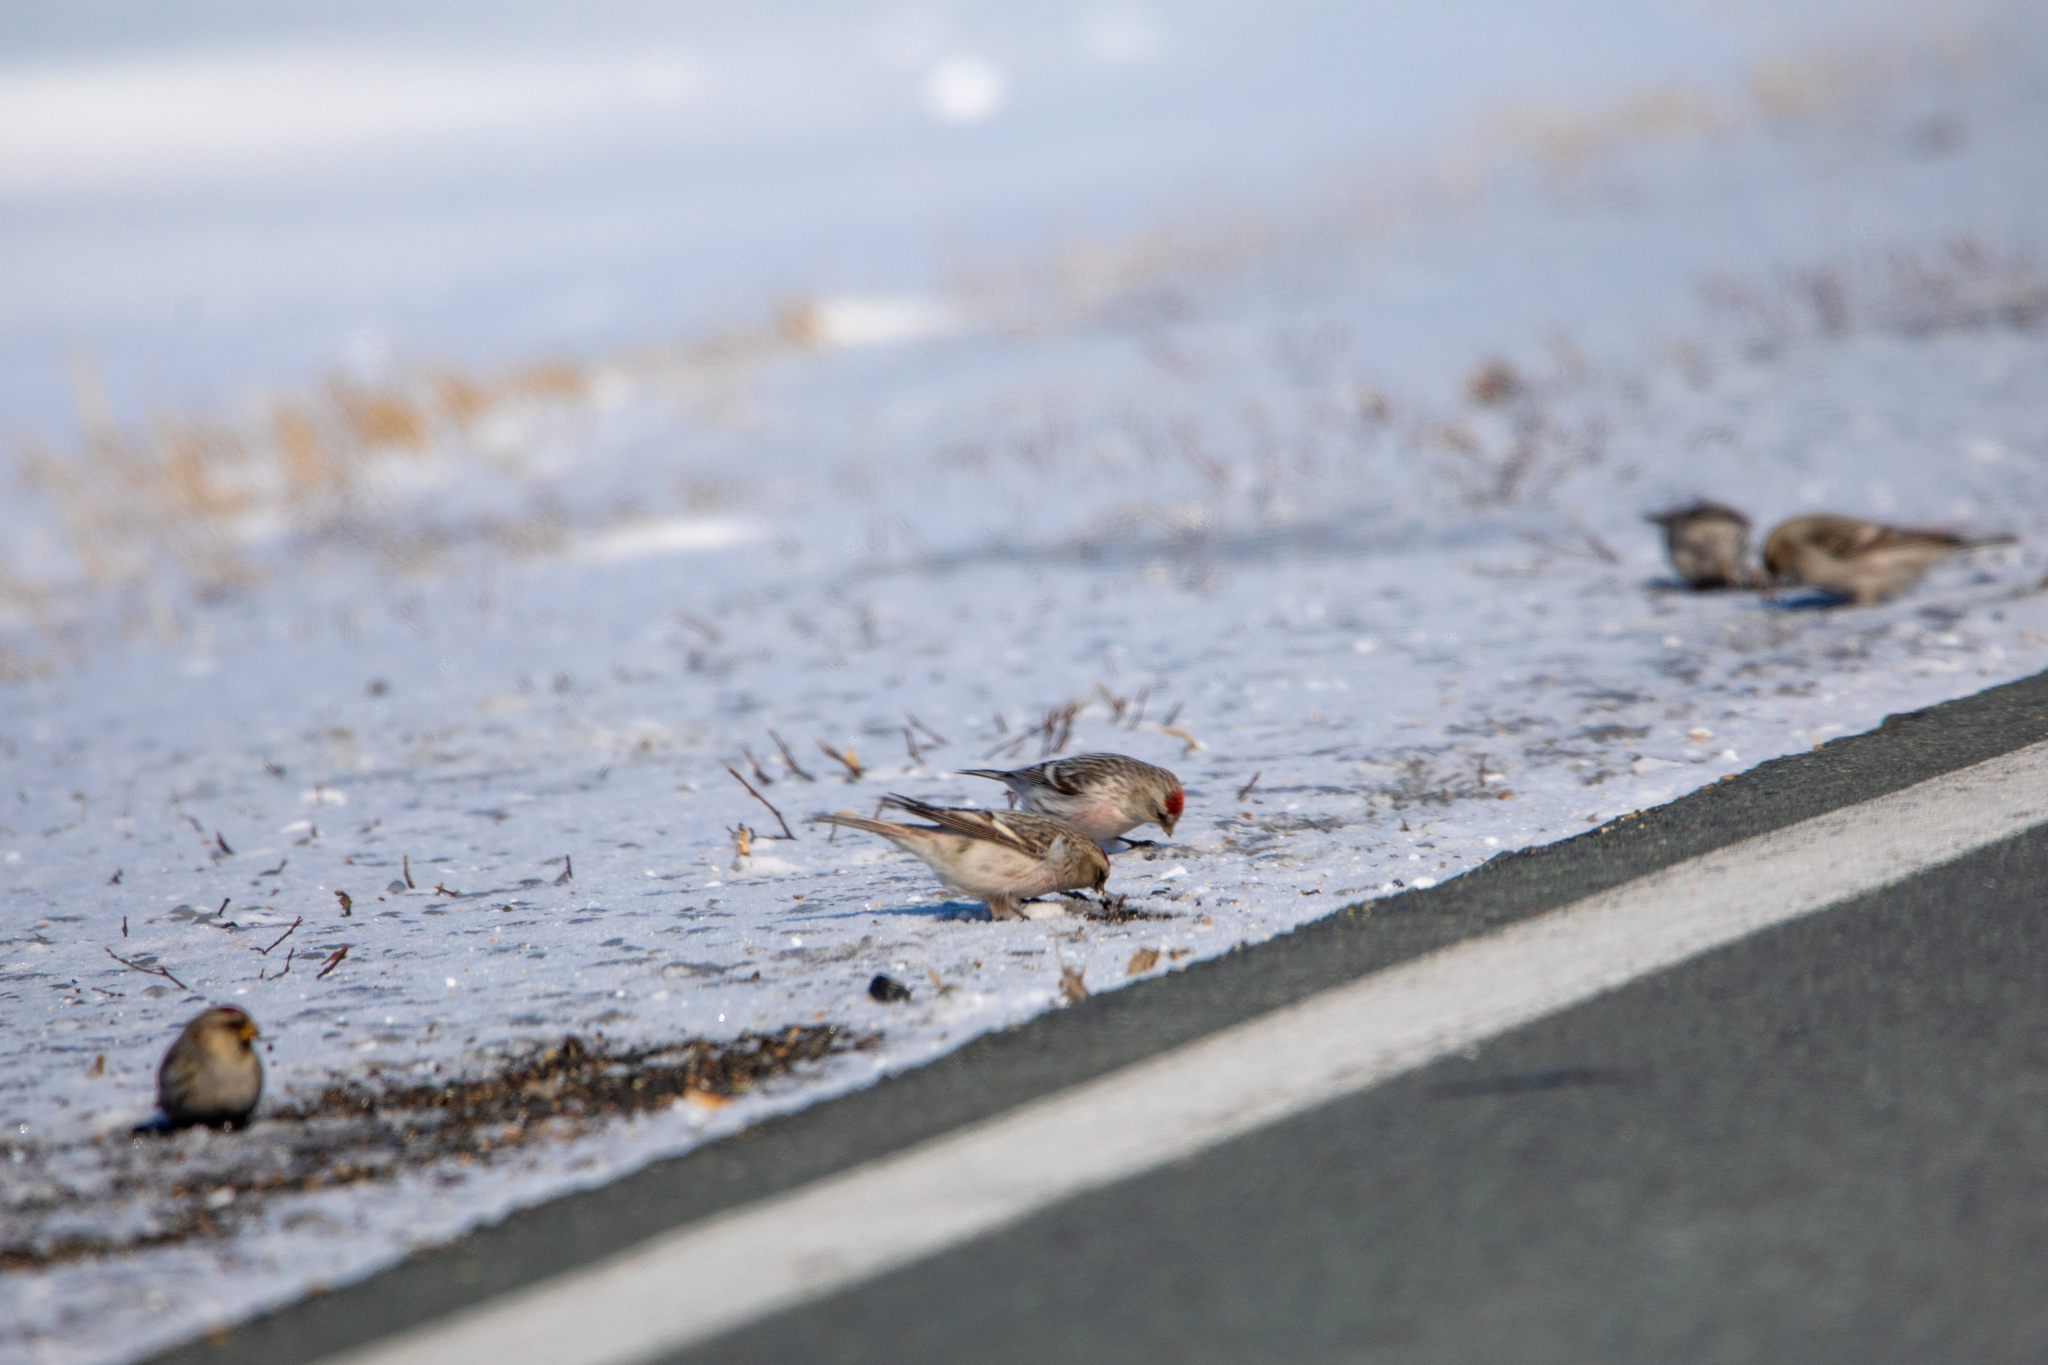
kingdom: Animalia
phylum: Chordata
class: Aves
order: Passeriformes
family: Fringillidae
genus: Acanthis
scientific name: Acanthis flammea
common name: Common redpoll
